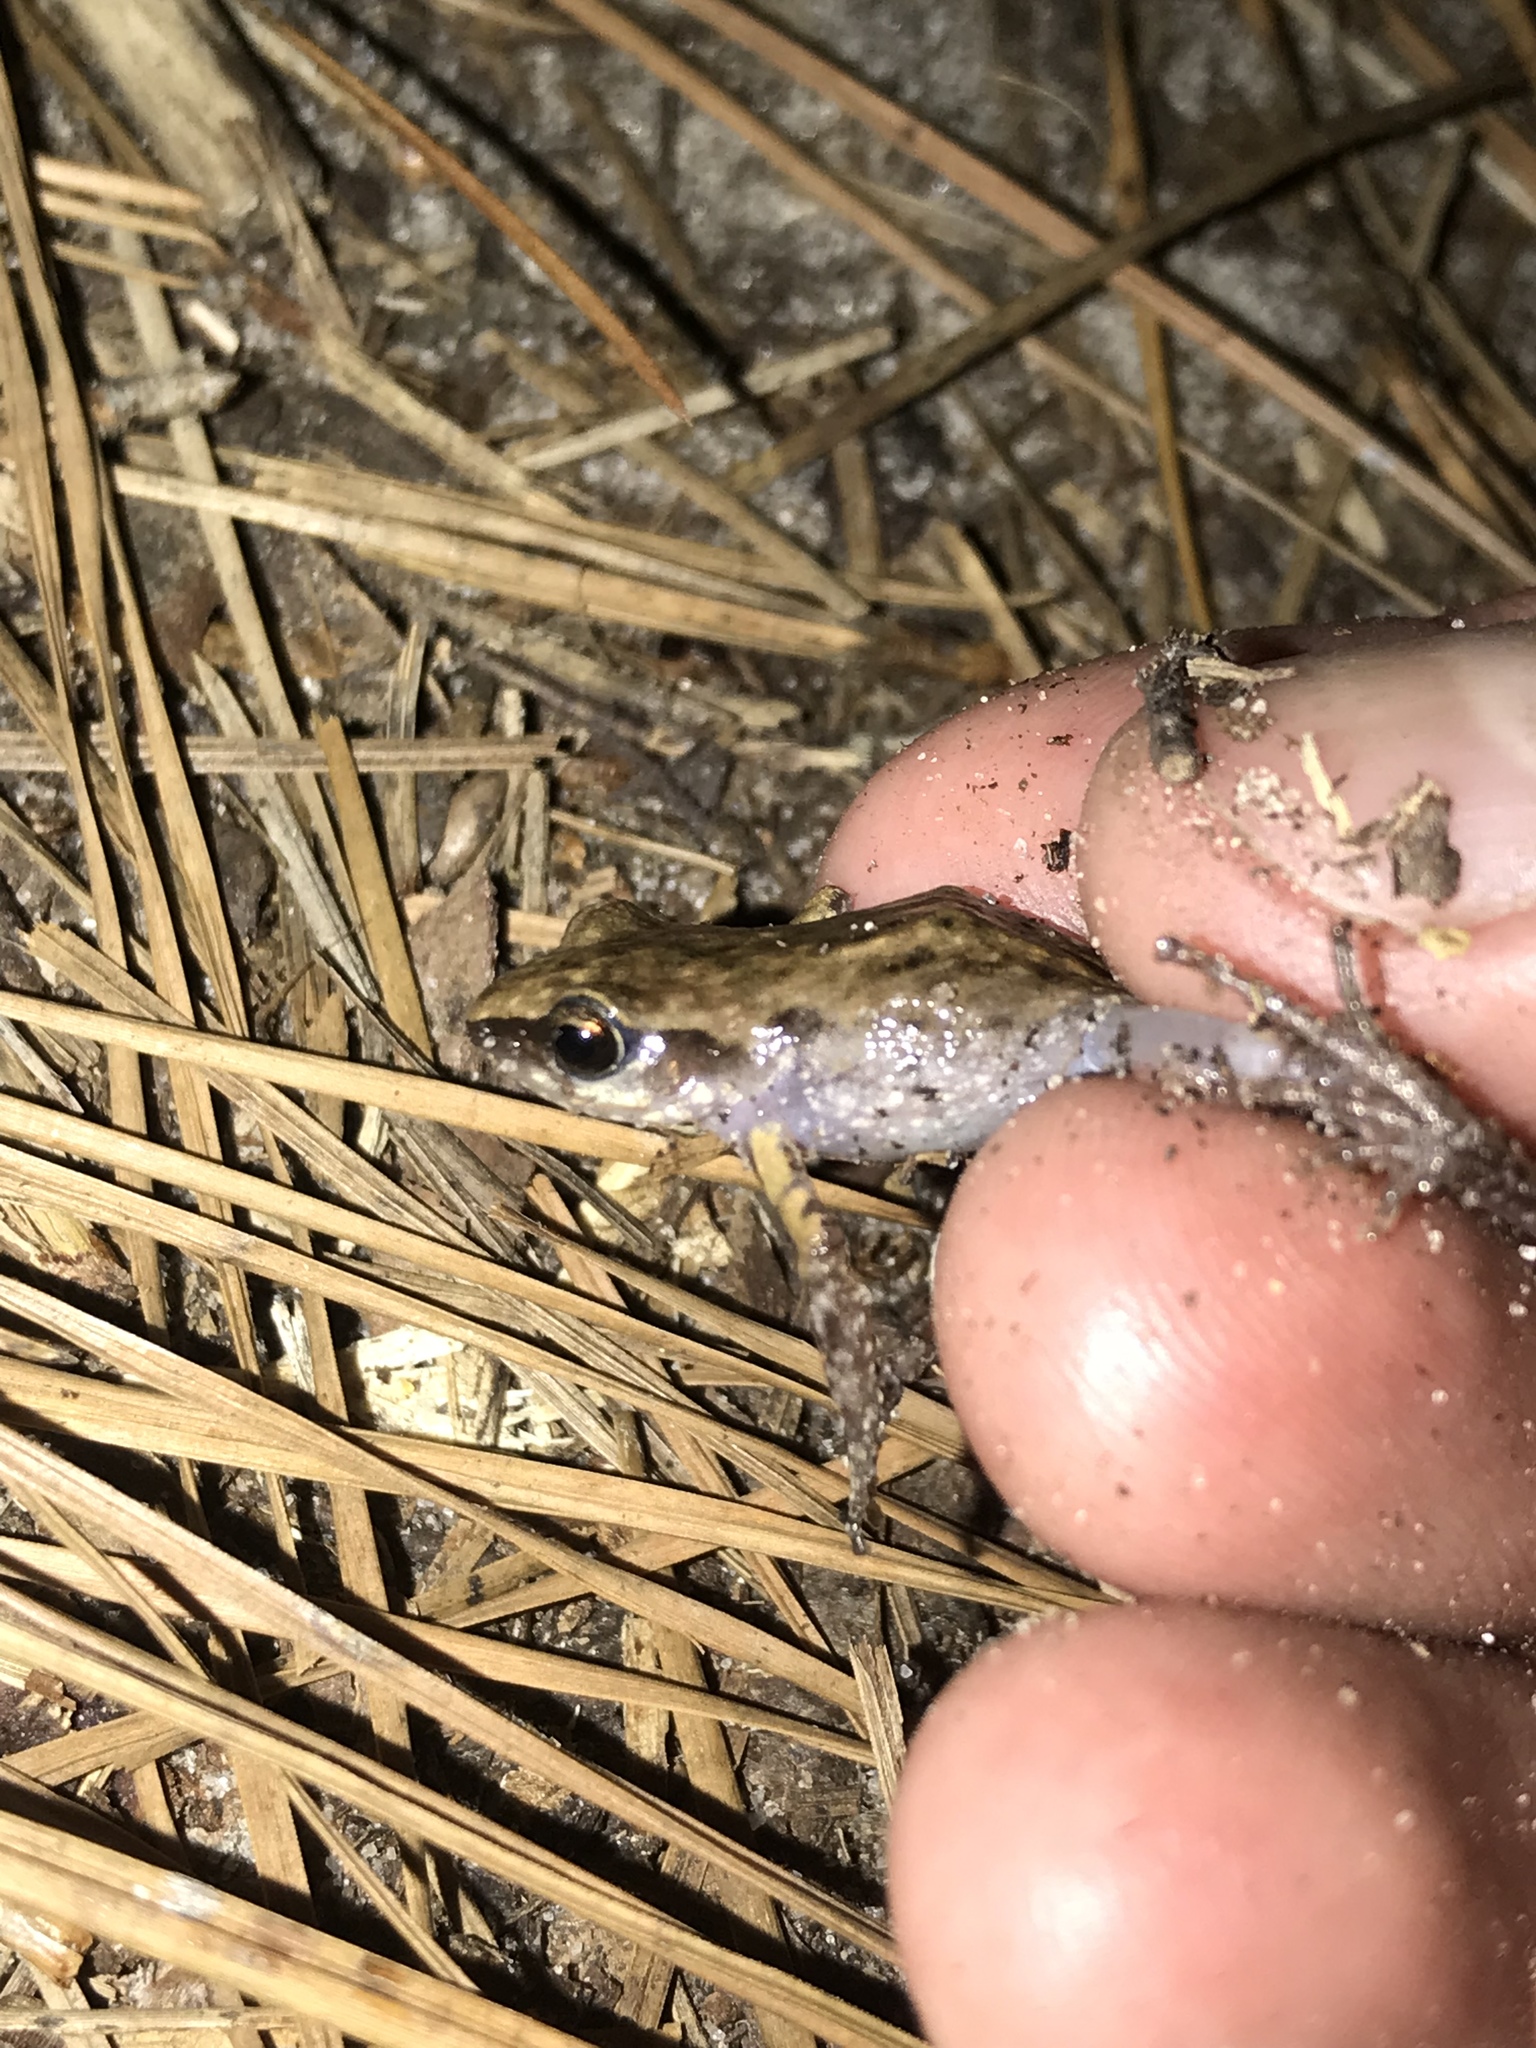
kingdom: Animalia
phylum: Chordata
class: Amphibia
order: Anura
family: Eleutherodactylidae
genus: Eleutherodactylus
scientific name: Eleutherodactylus campi
